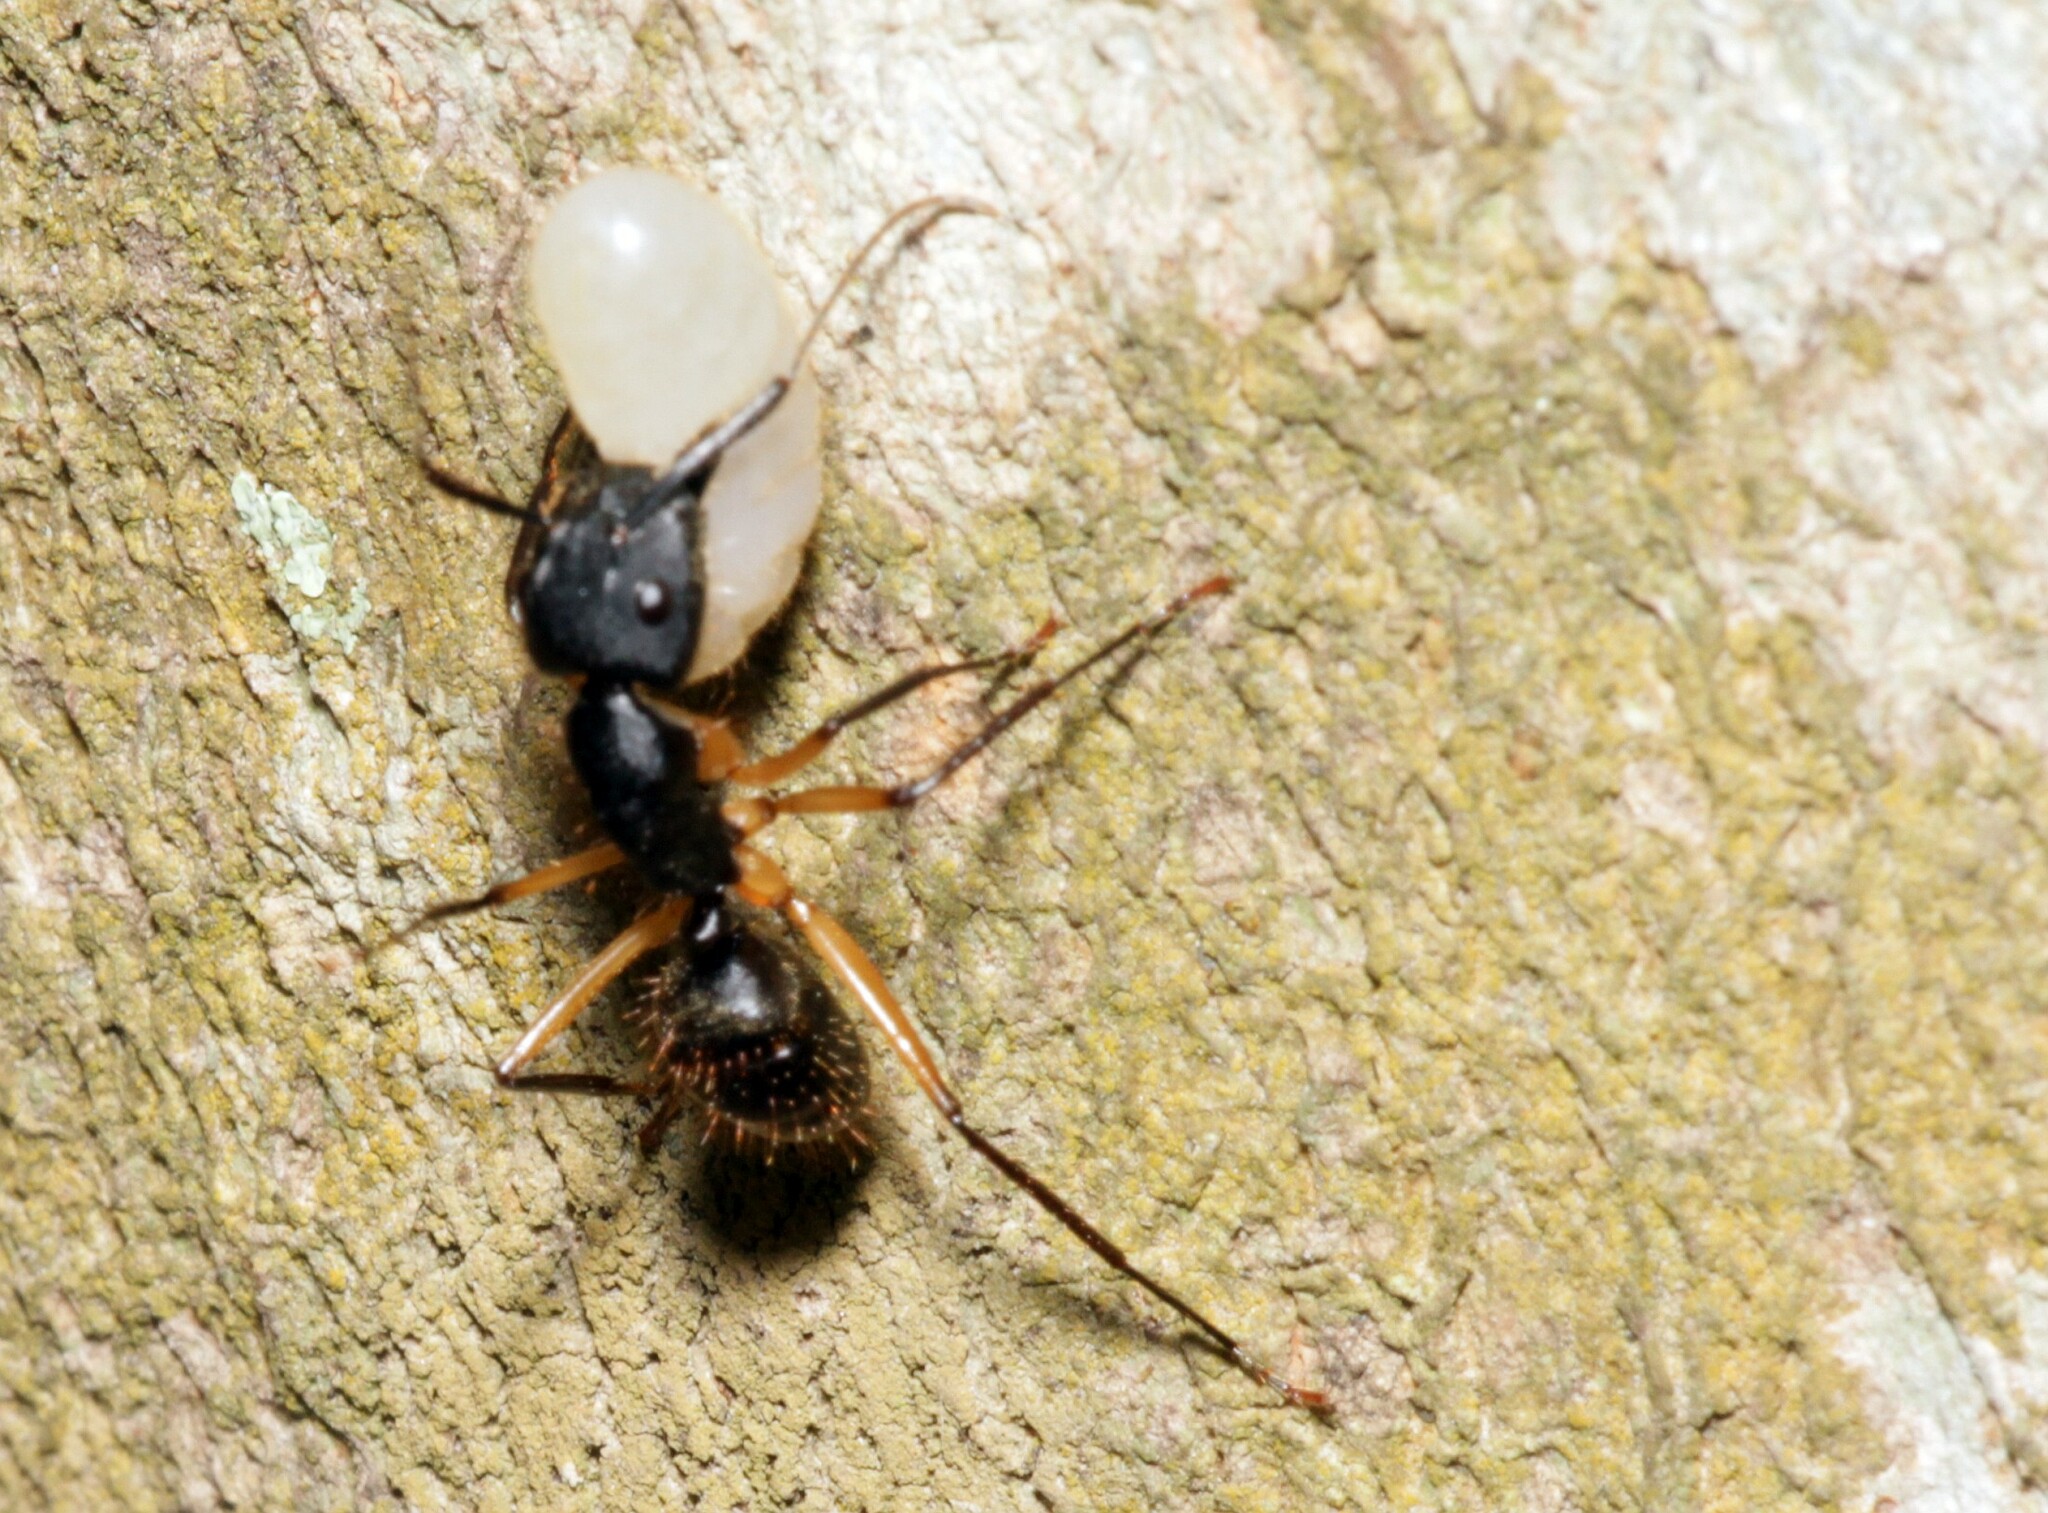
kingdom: Animalia
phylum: Arthropoda
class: Insecta
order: Hymenoptera
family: Formicidae
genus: Camponotus
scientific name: Camponotus renggeri
